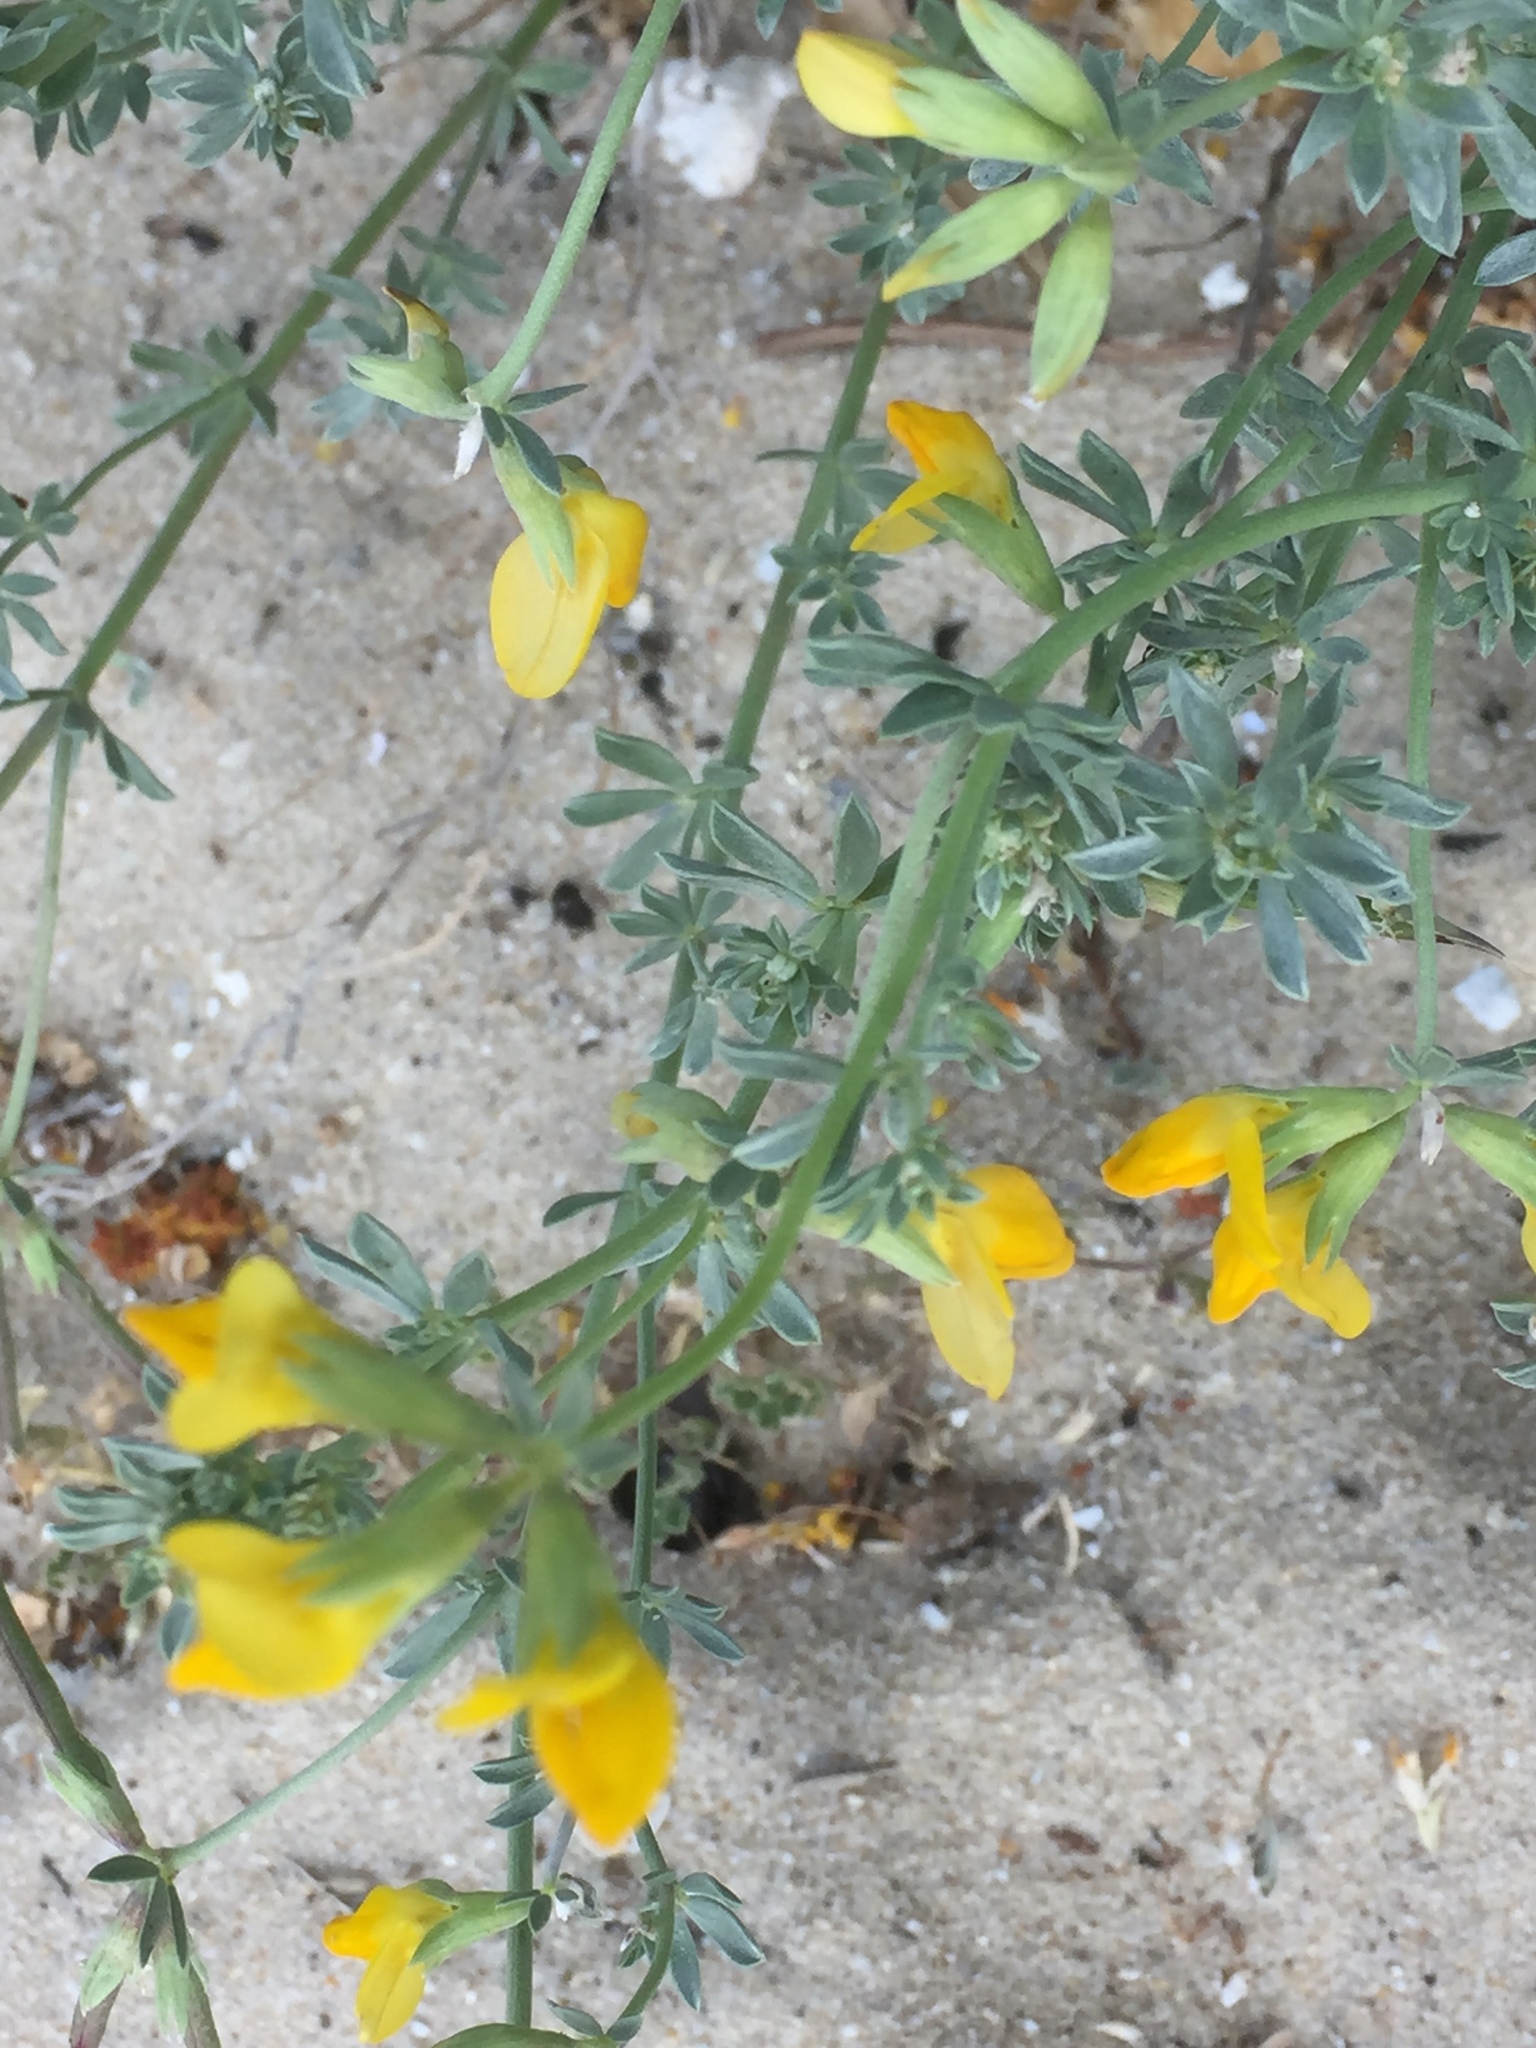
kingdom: Plantae
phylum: Tracheophyta
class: Magnoliopsida
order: Fabales
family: Fabaceae
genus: Lotus
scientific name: Lotus creticus
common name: Cretan bird's-foot trefoil
